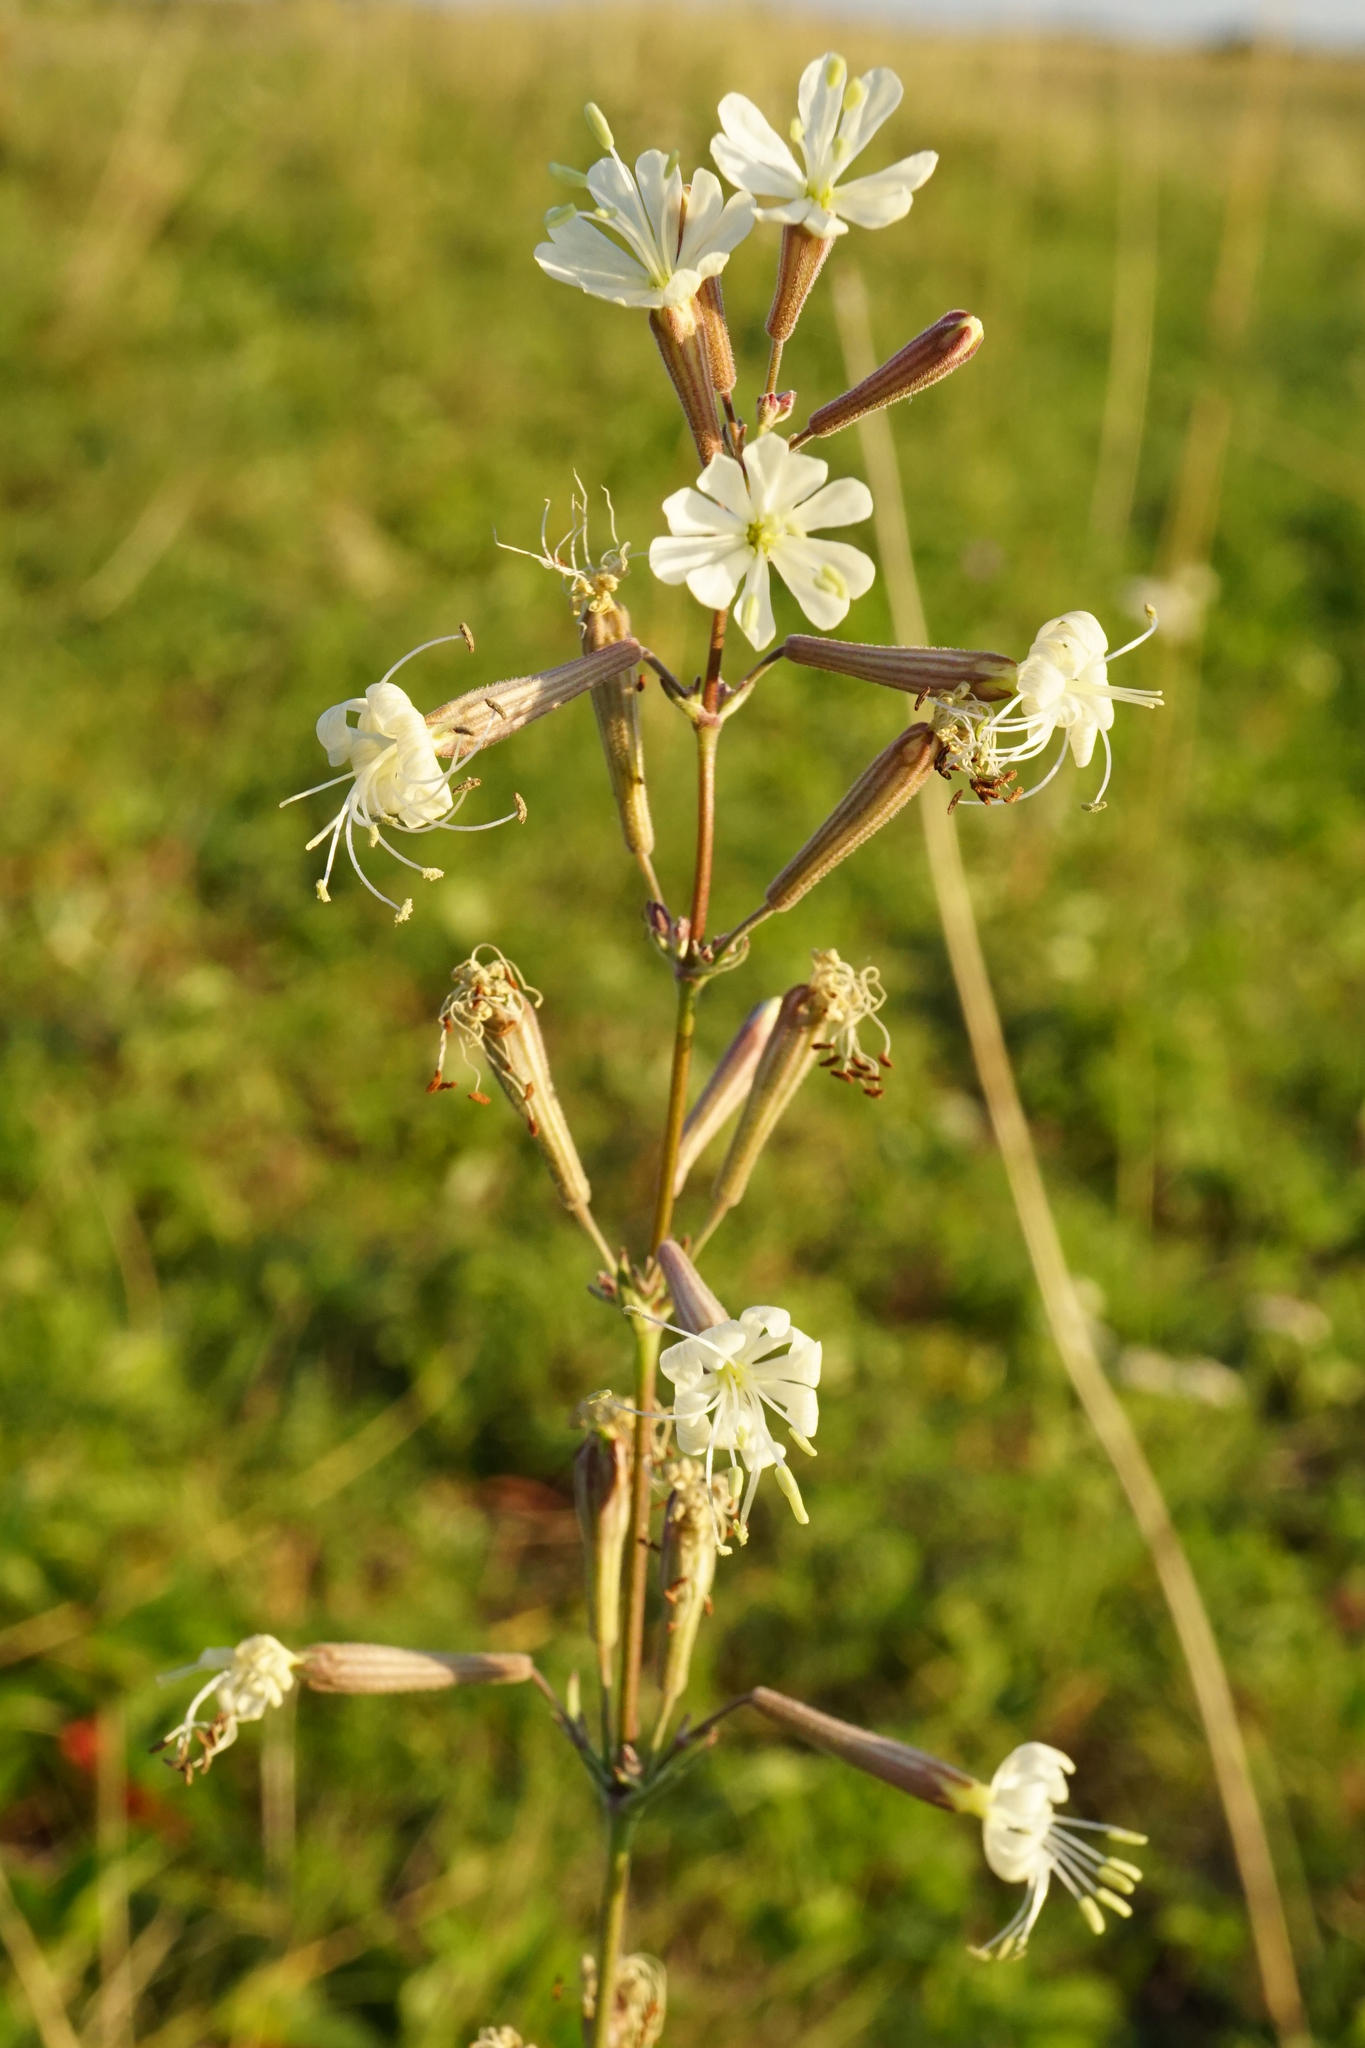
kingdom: Plantae
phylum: Tracheophyta
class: Magnoliopsida
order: Caryophyllales
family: Caryophyllaceae
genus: Silene
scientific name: Silene multiflora
